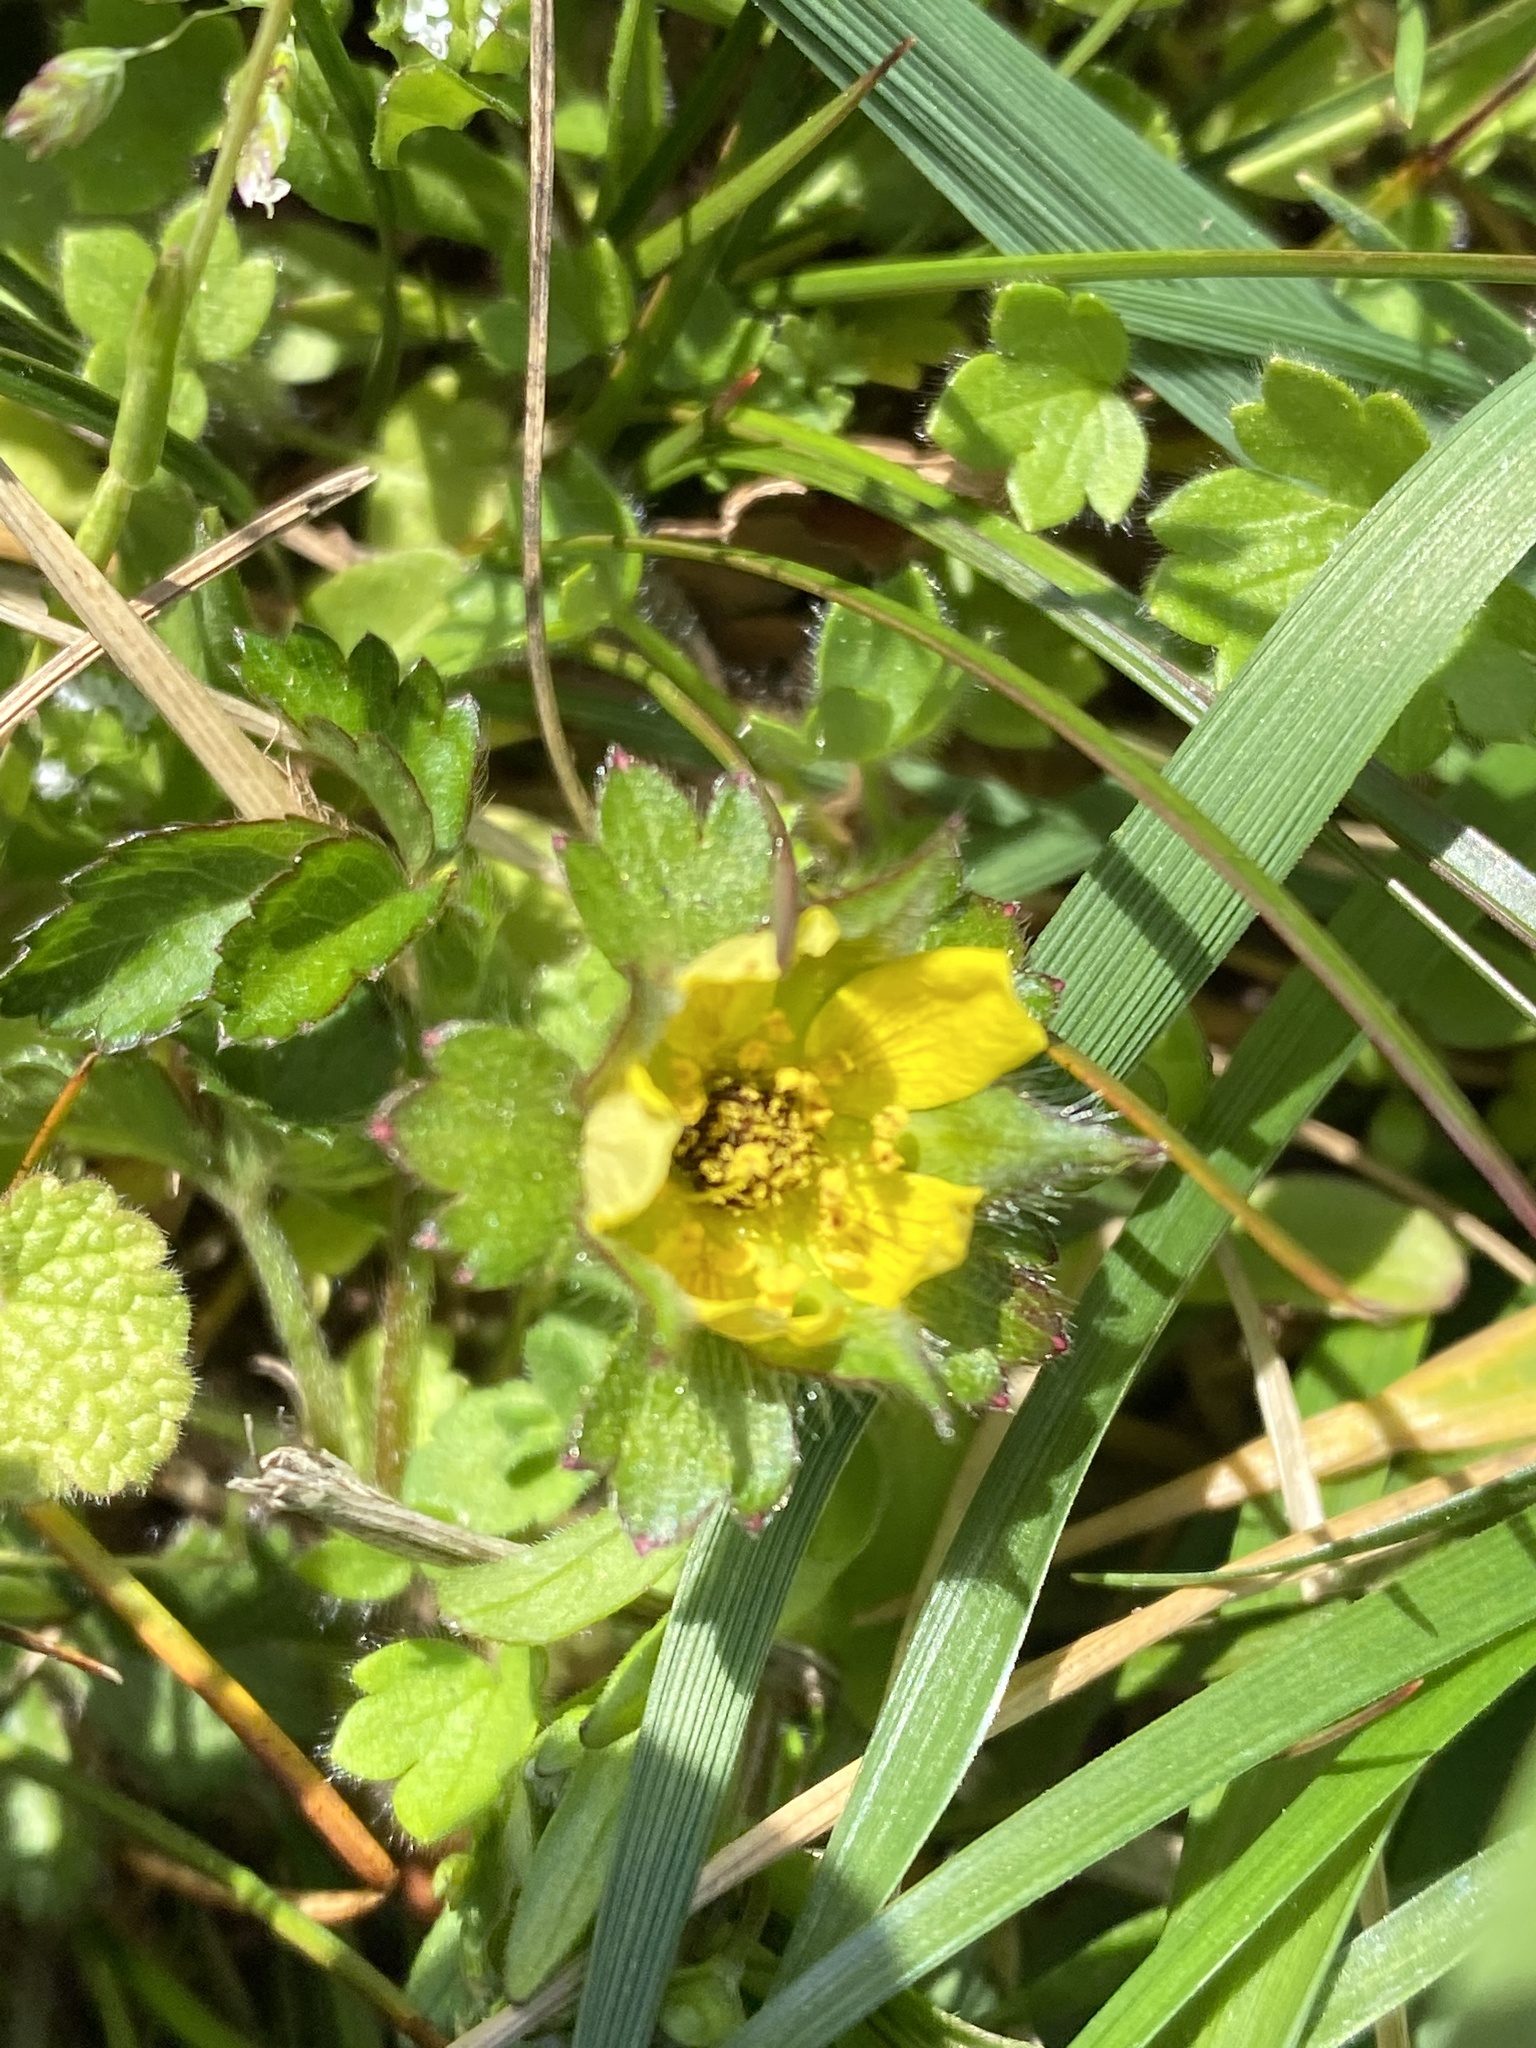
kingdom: Plantae
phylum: Tracheophyta
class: Magnoliopsida
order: Rosales
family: Rosaceae
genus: Potentilla
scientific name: Potentilla indica
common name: Yellow-flowered strawberry
